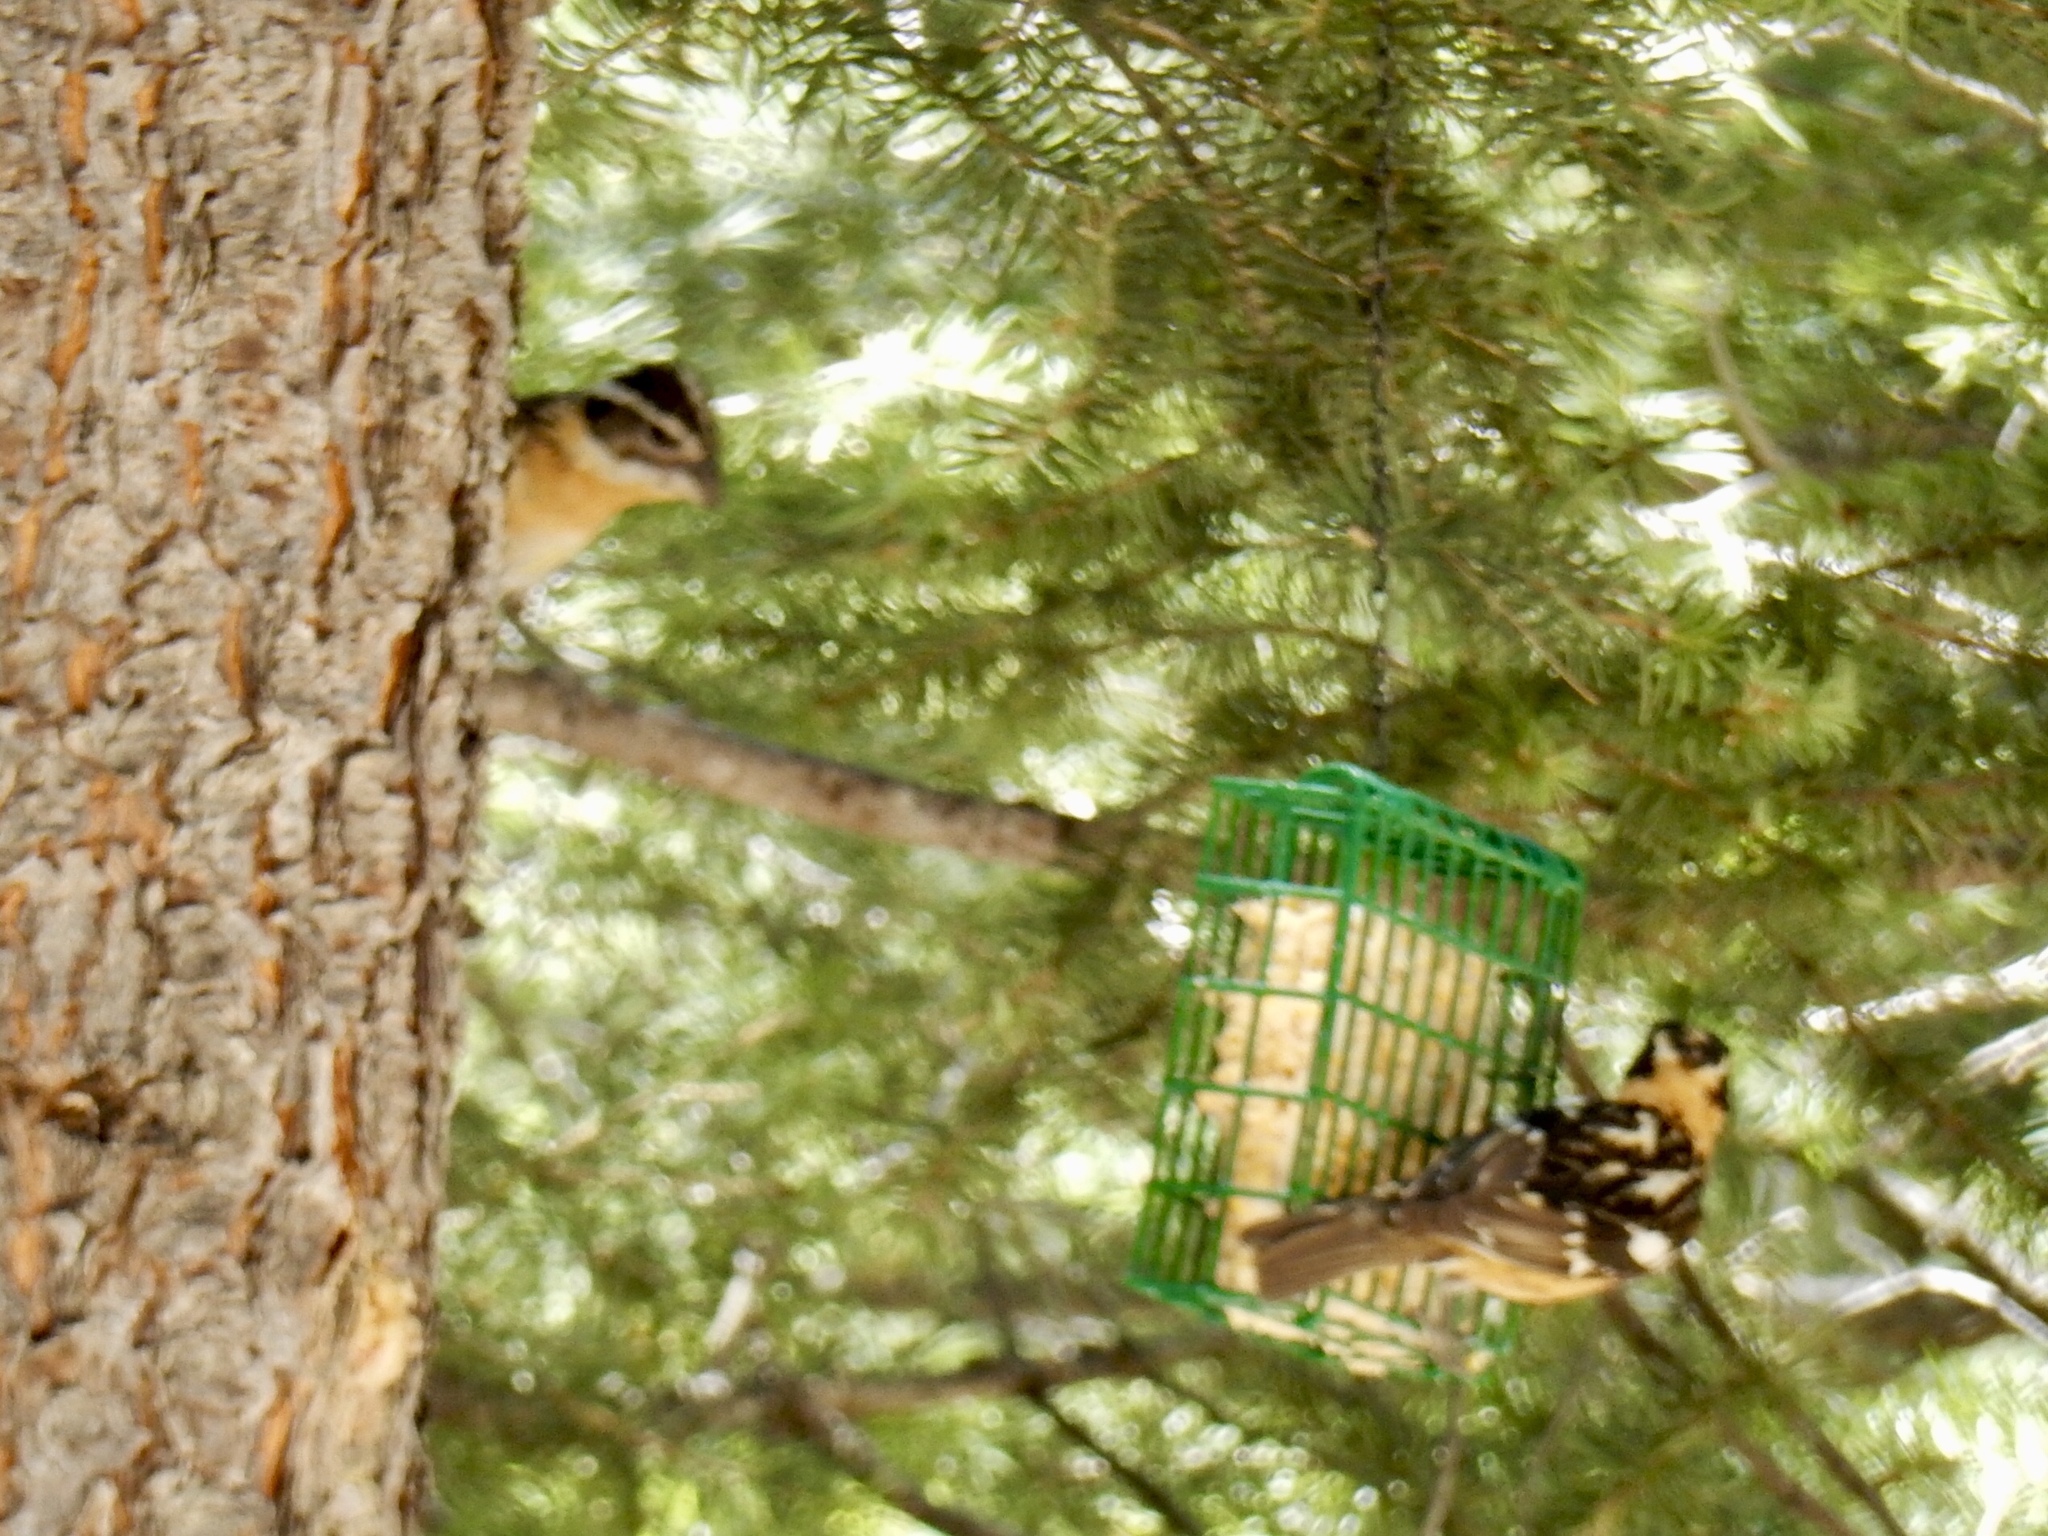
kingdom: Animalia
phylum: Chordata
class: Aves
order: Passeriformes
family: Cardinalidae
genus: Pheucticus
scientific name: Pheucticus melanocephalus
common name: Black-headed grosbeak
